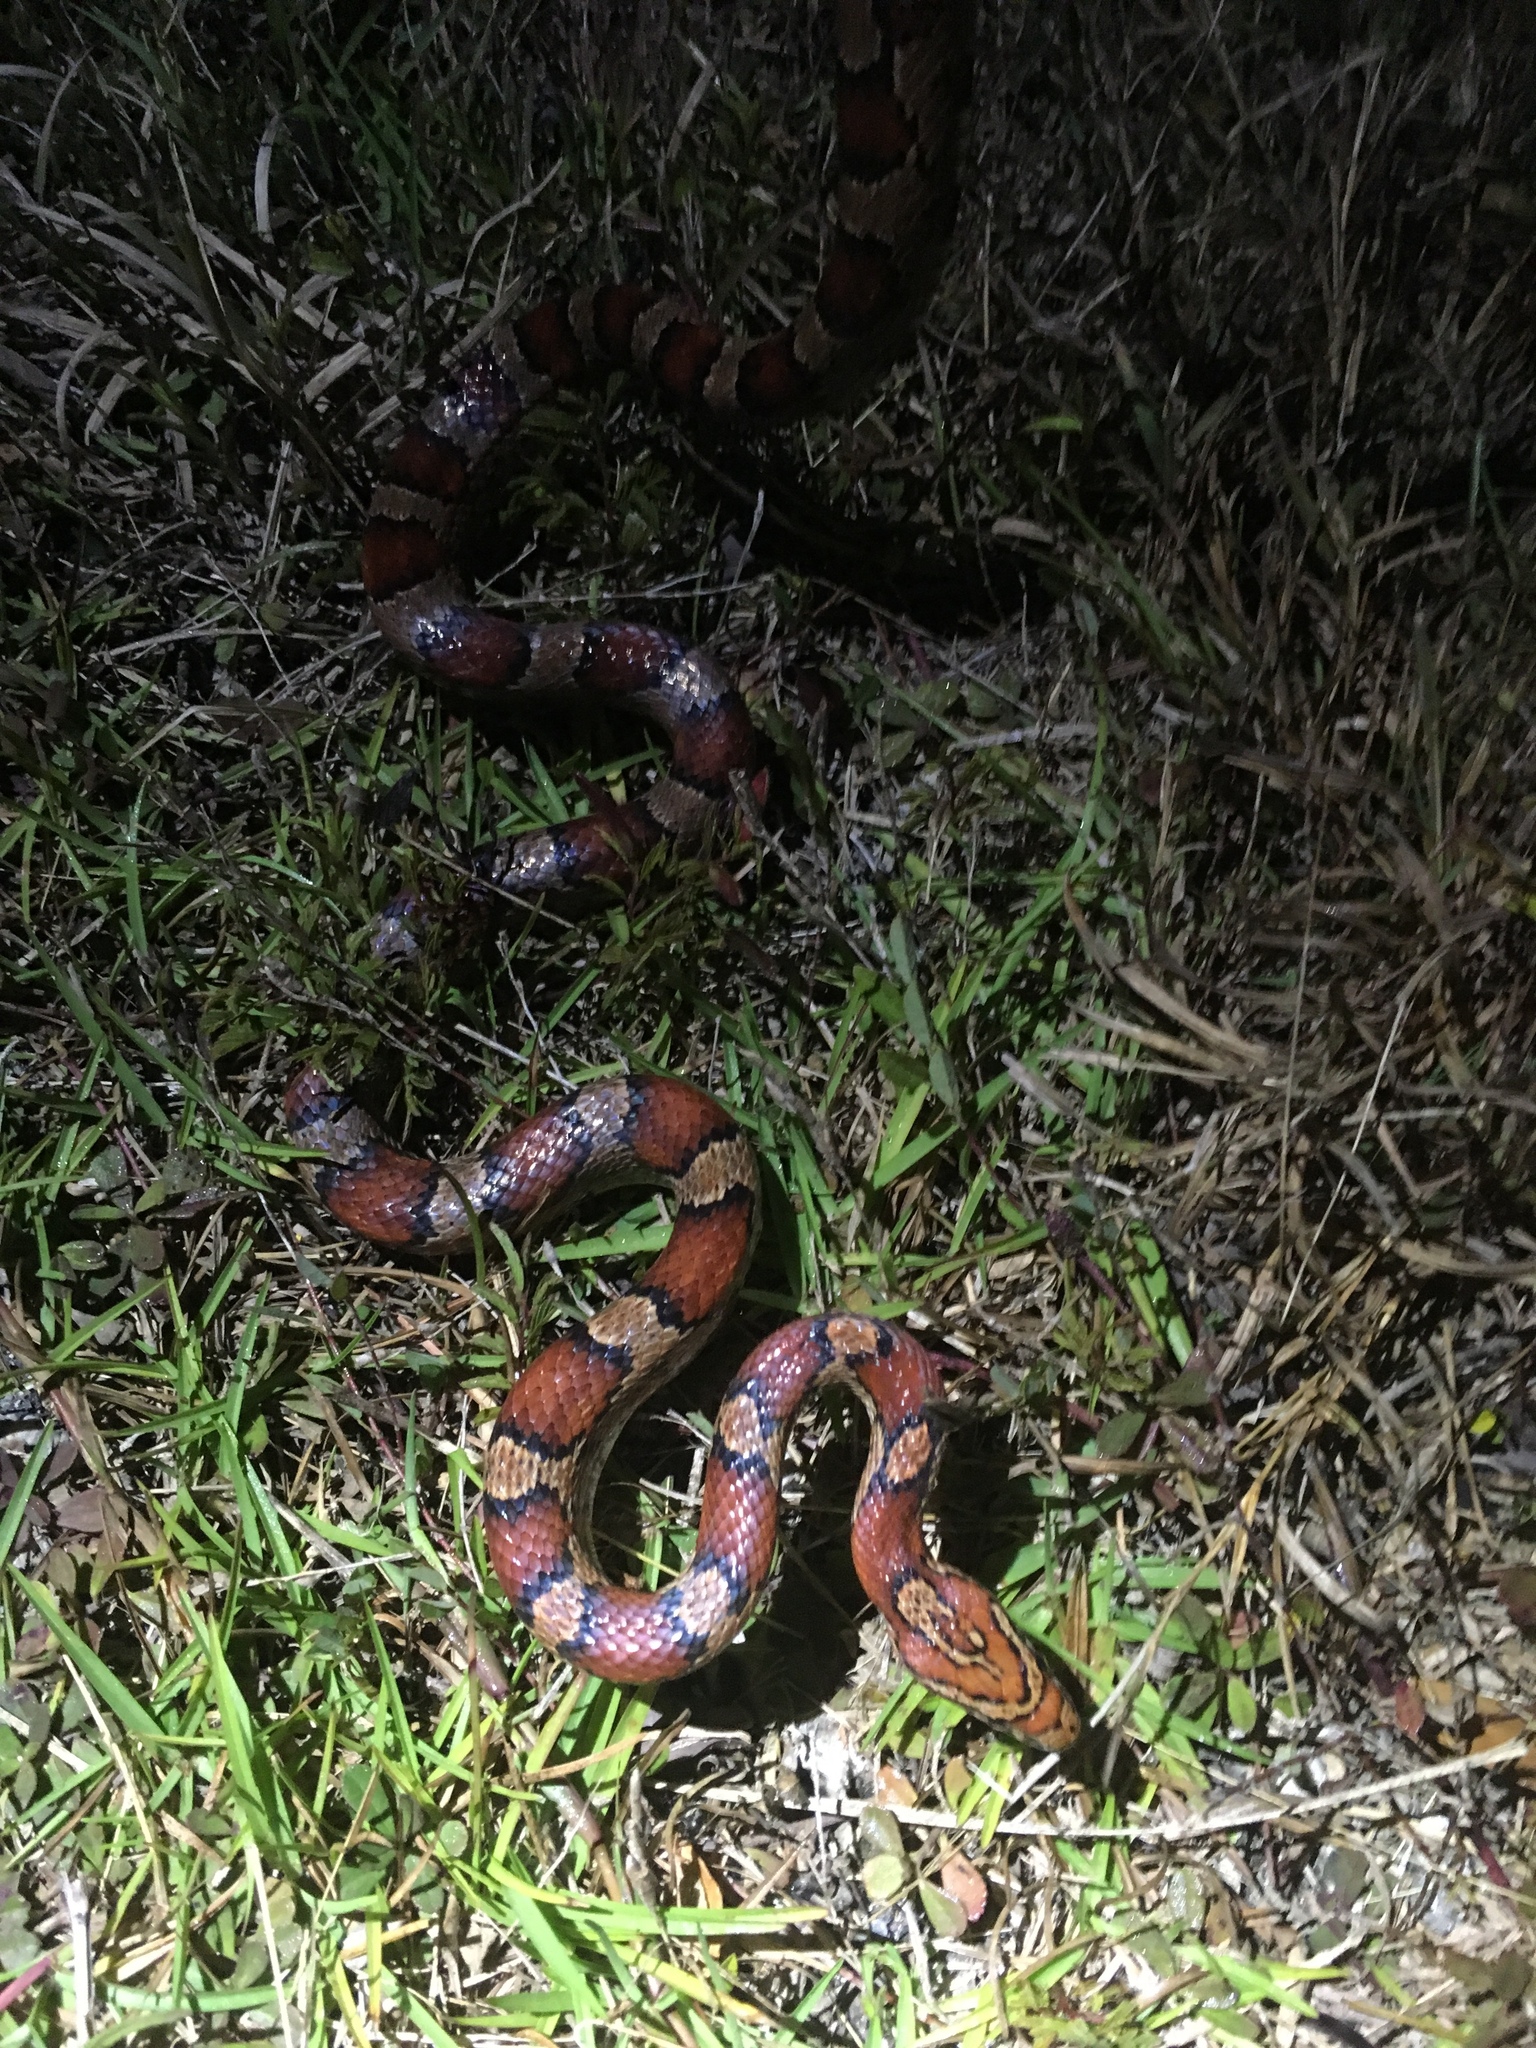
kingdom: Animalia
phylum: Chordata
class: Squamata
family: Colubridae
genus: Pantherophis
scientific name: Pantherophis guttatus
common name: Red cornsnake
